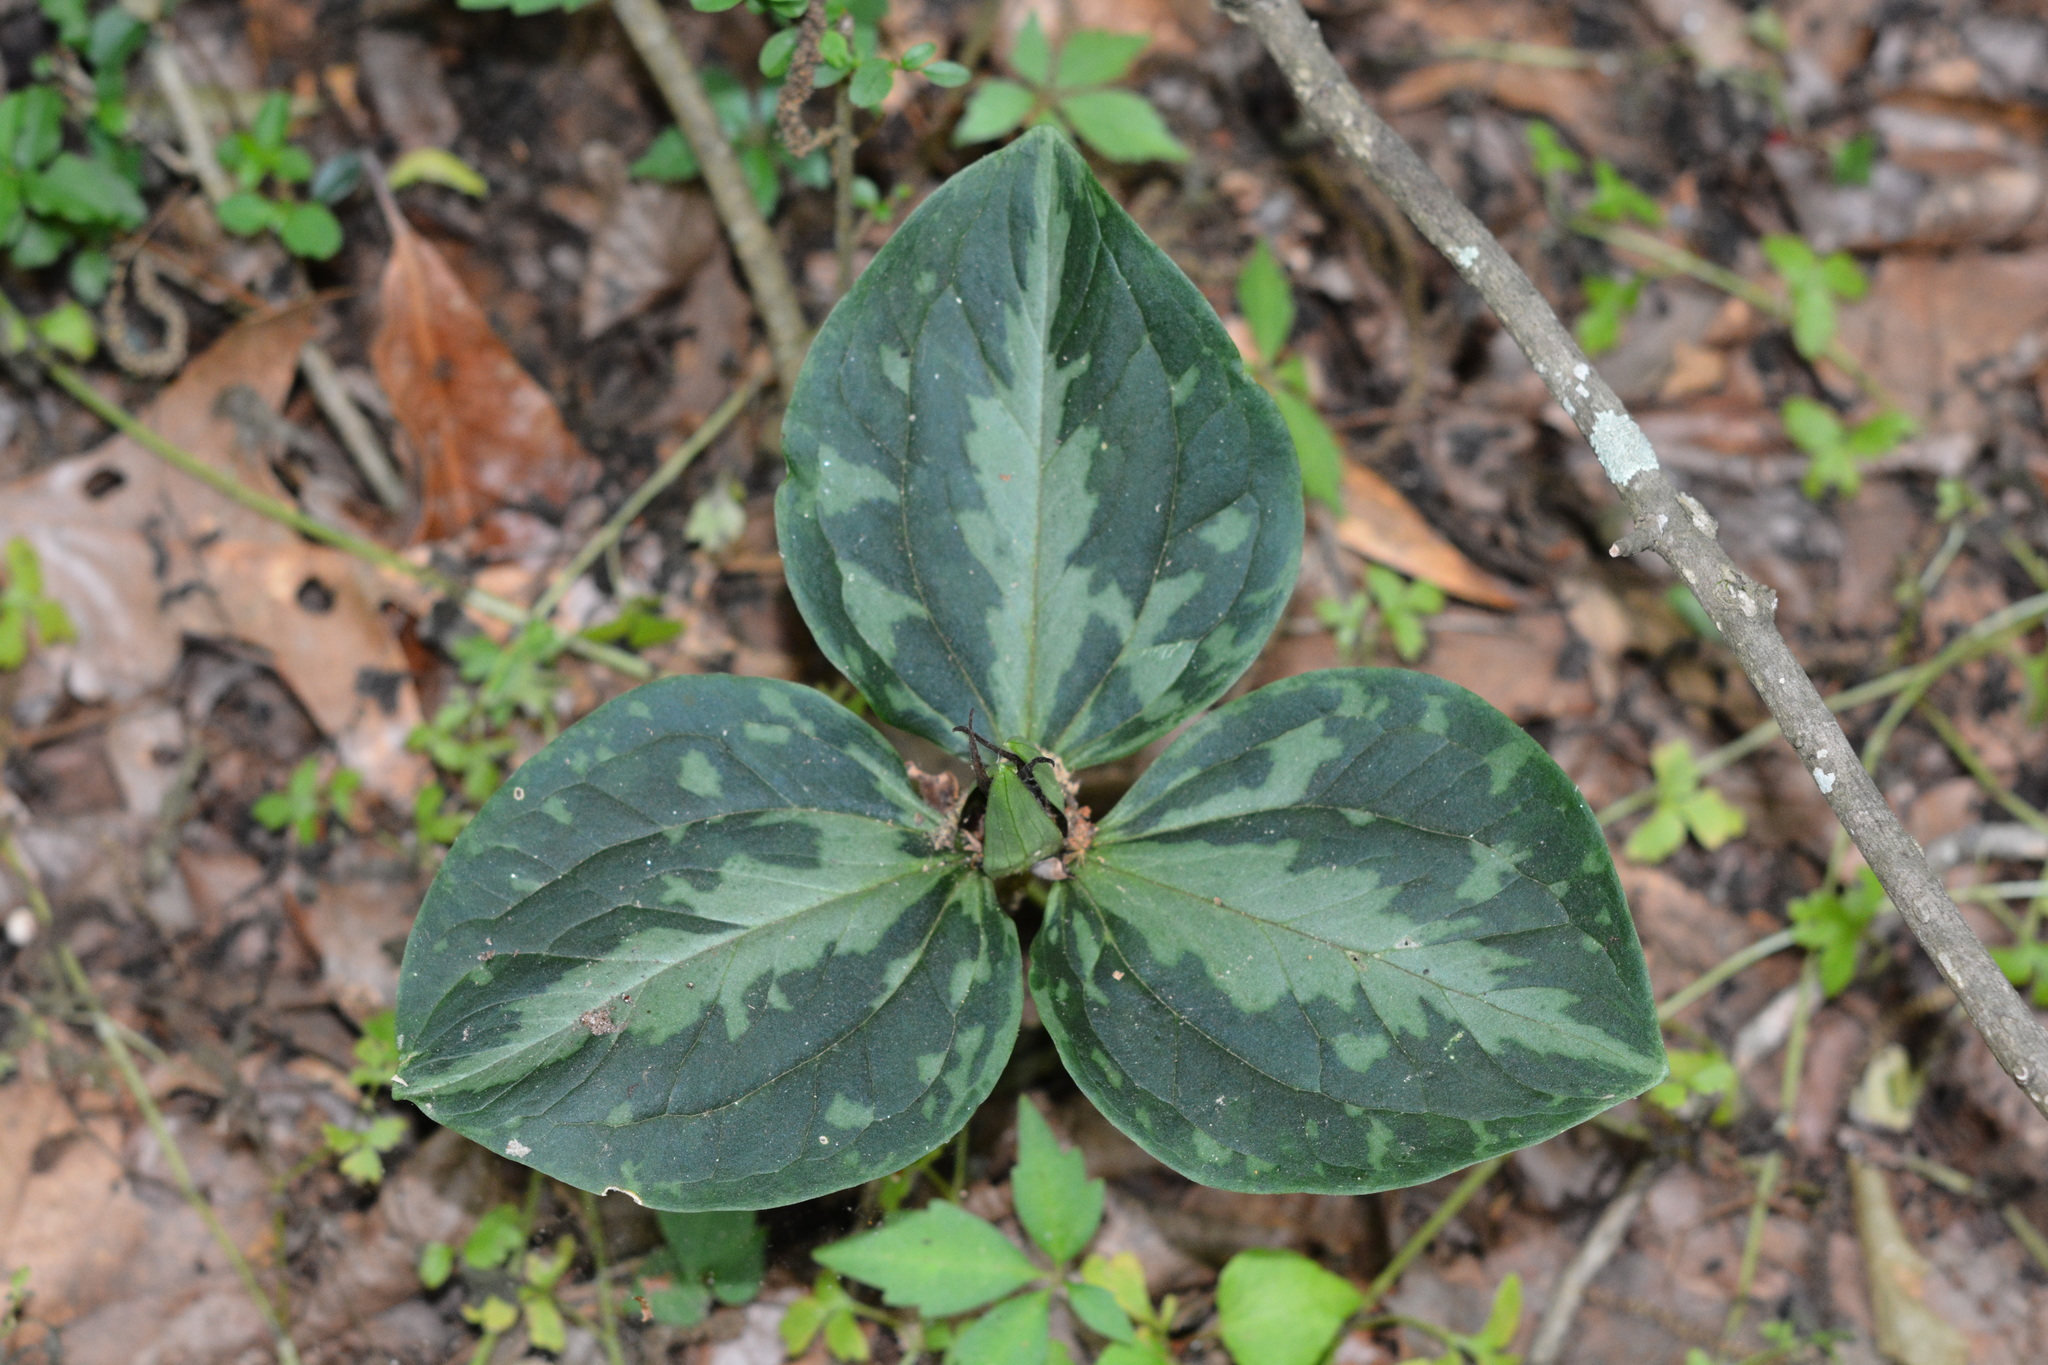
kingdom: Plantae
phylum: Tracheophyta
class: Liliopsida
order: Liliales
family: Melanthiaceae
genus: Trillium
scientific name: Trillium foetidissimum
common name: Mississippi river trillium
